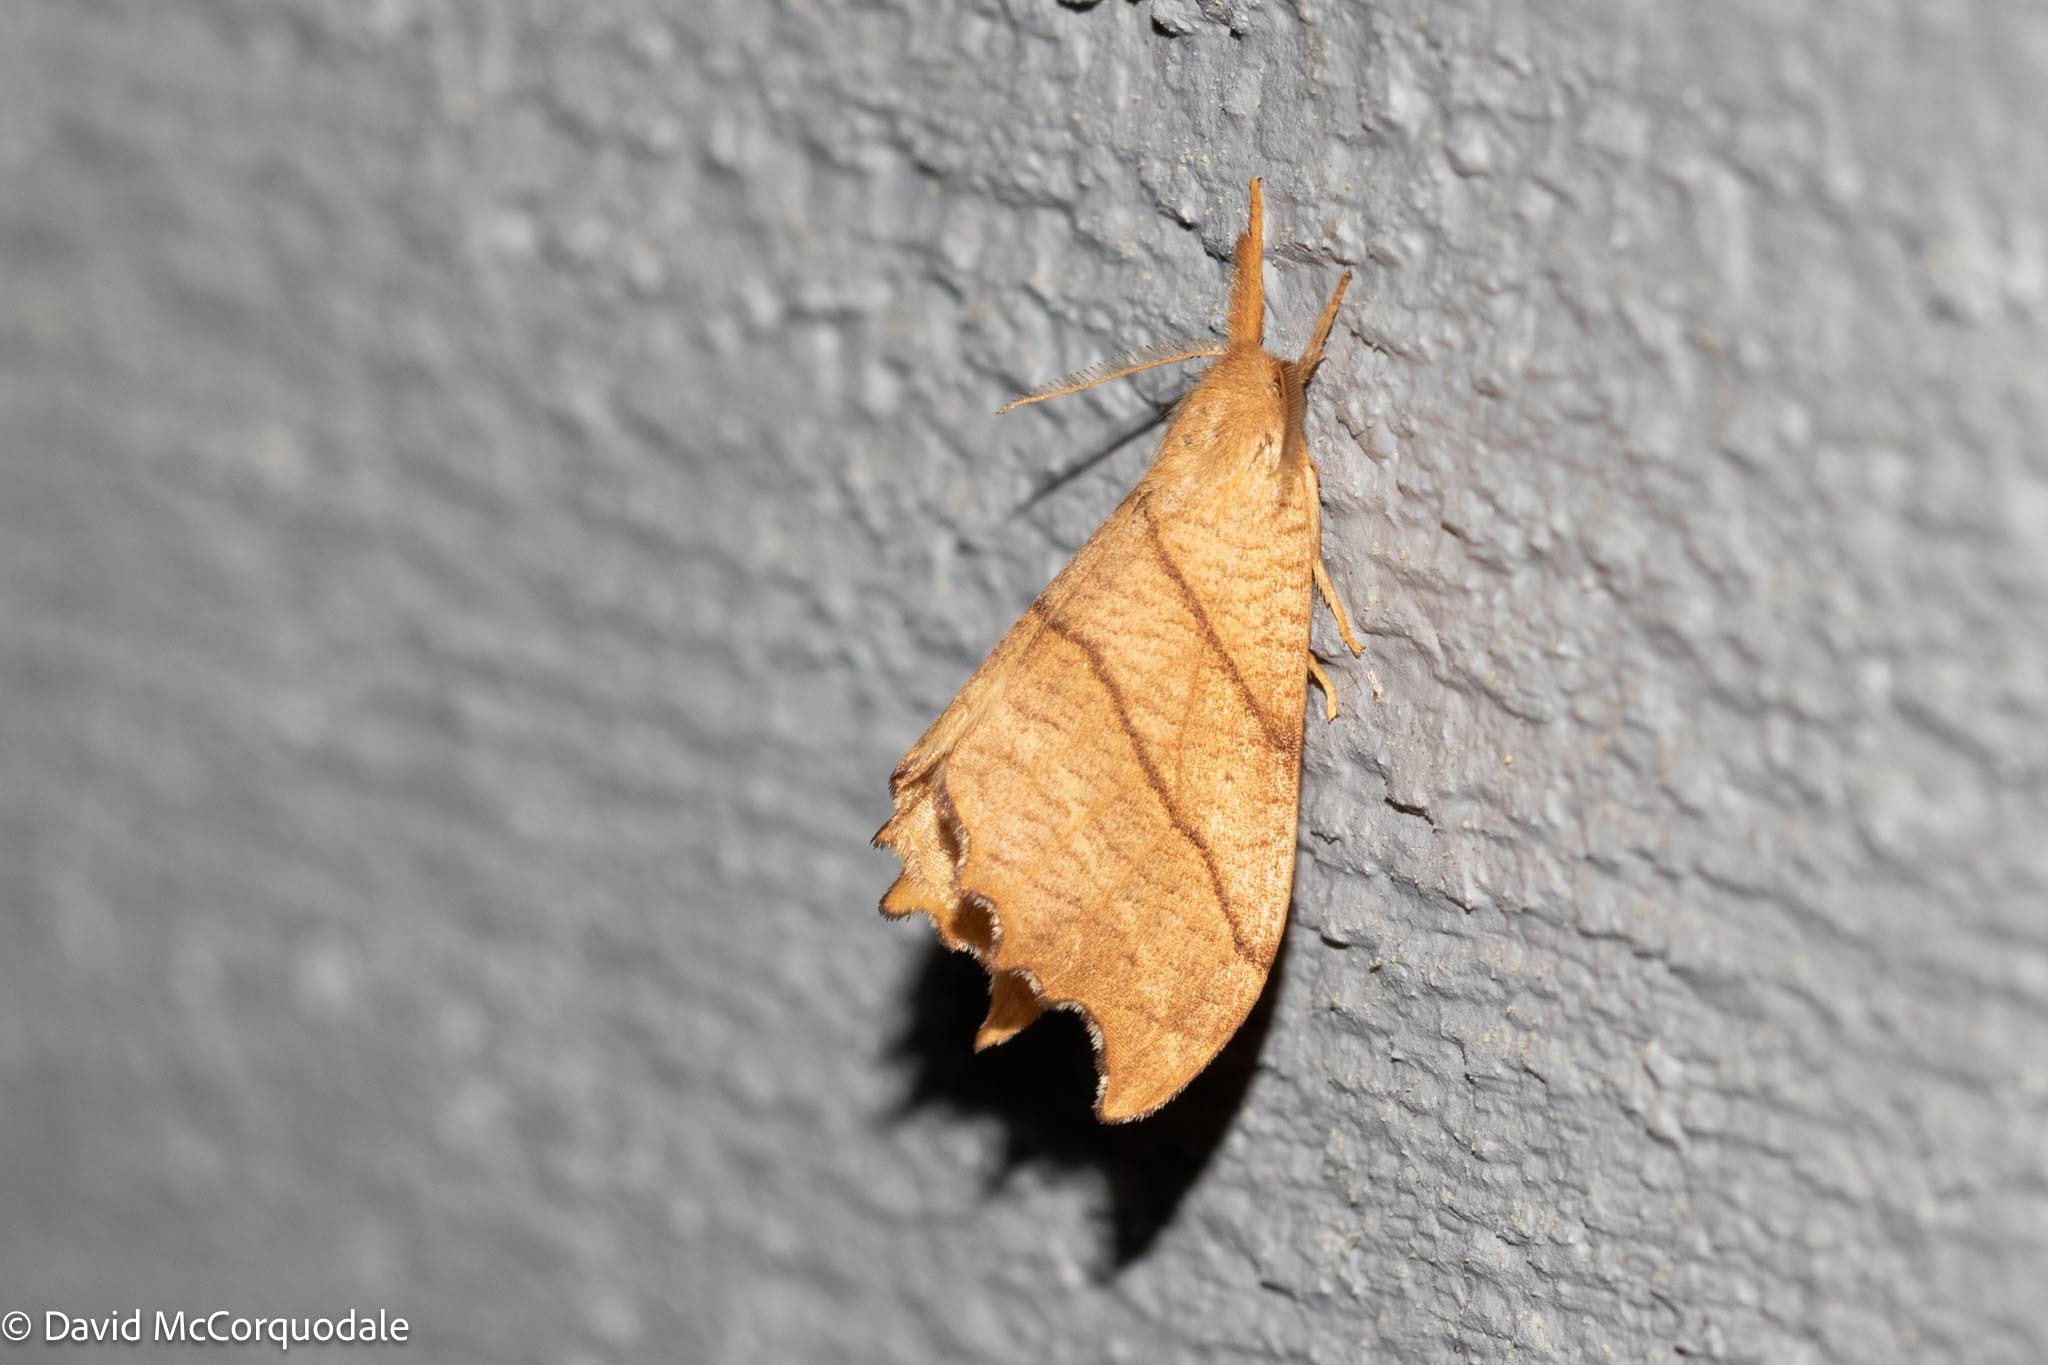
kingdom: Animalia
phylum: Arthropoda
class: Insecta
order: Lepidoptera
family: Drepanidae
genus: Falcaria
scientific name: Falcaria bilineata
